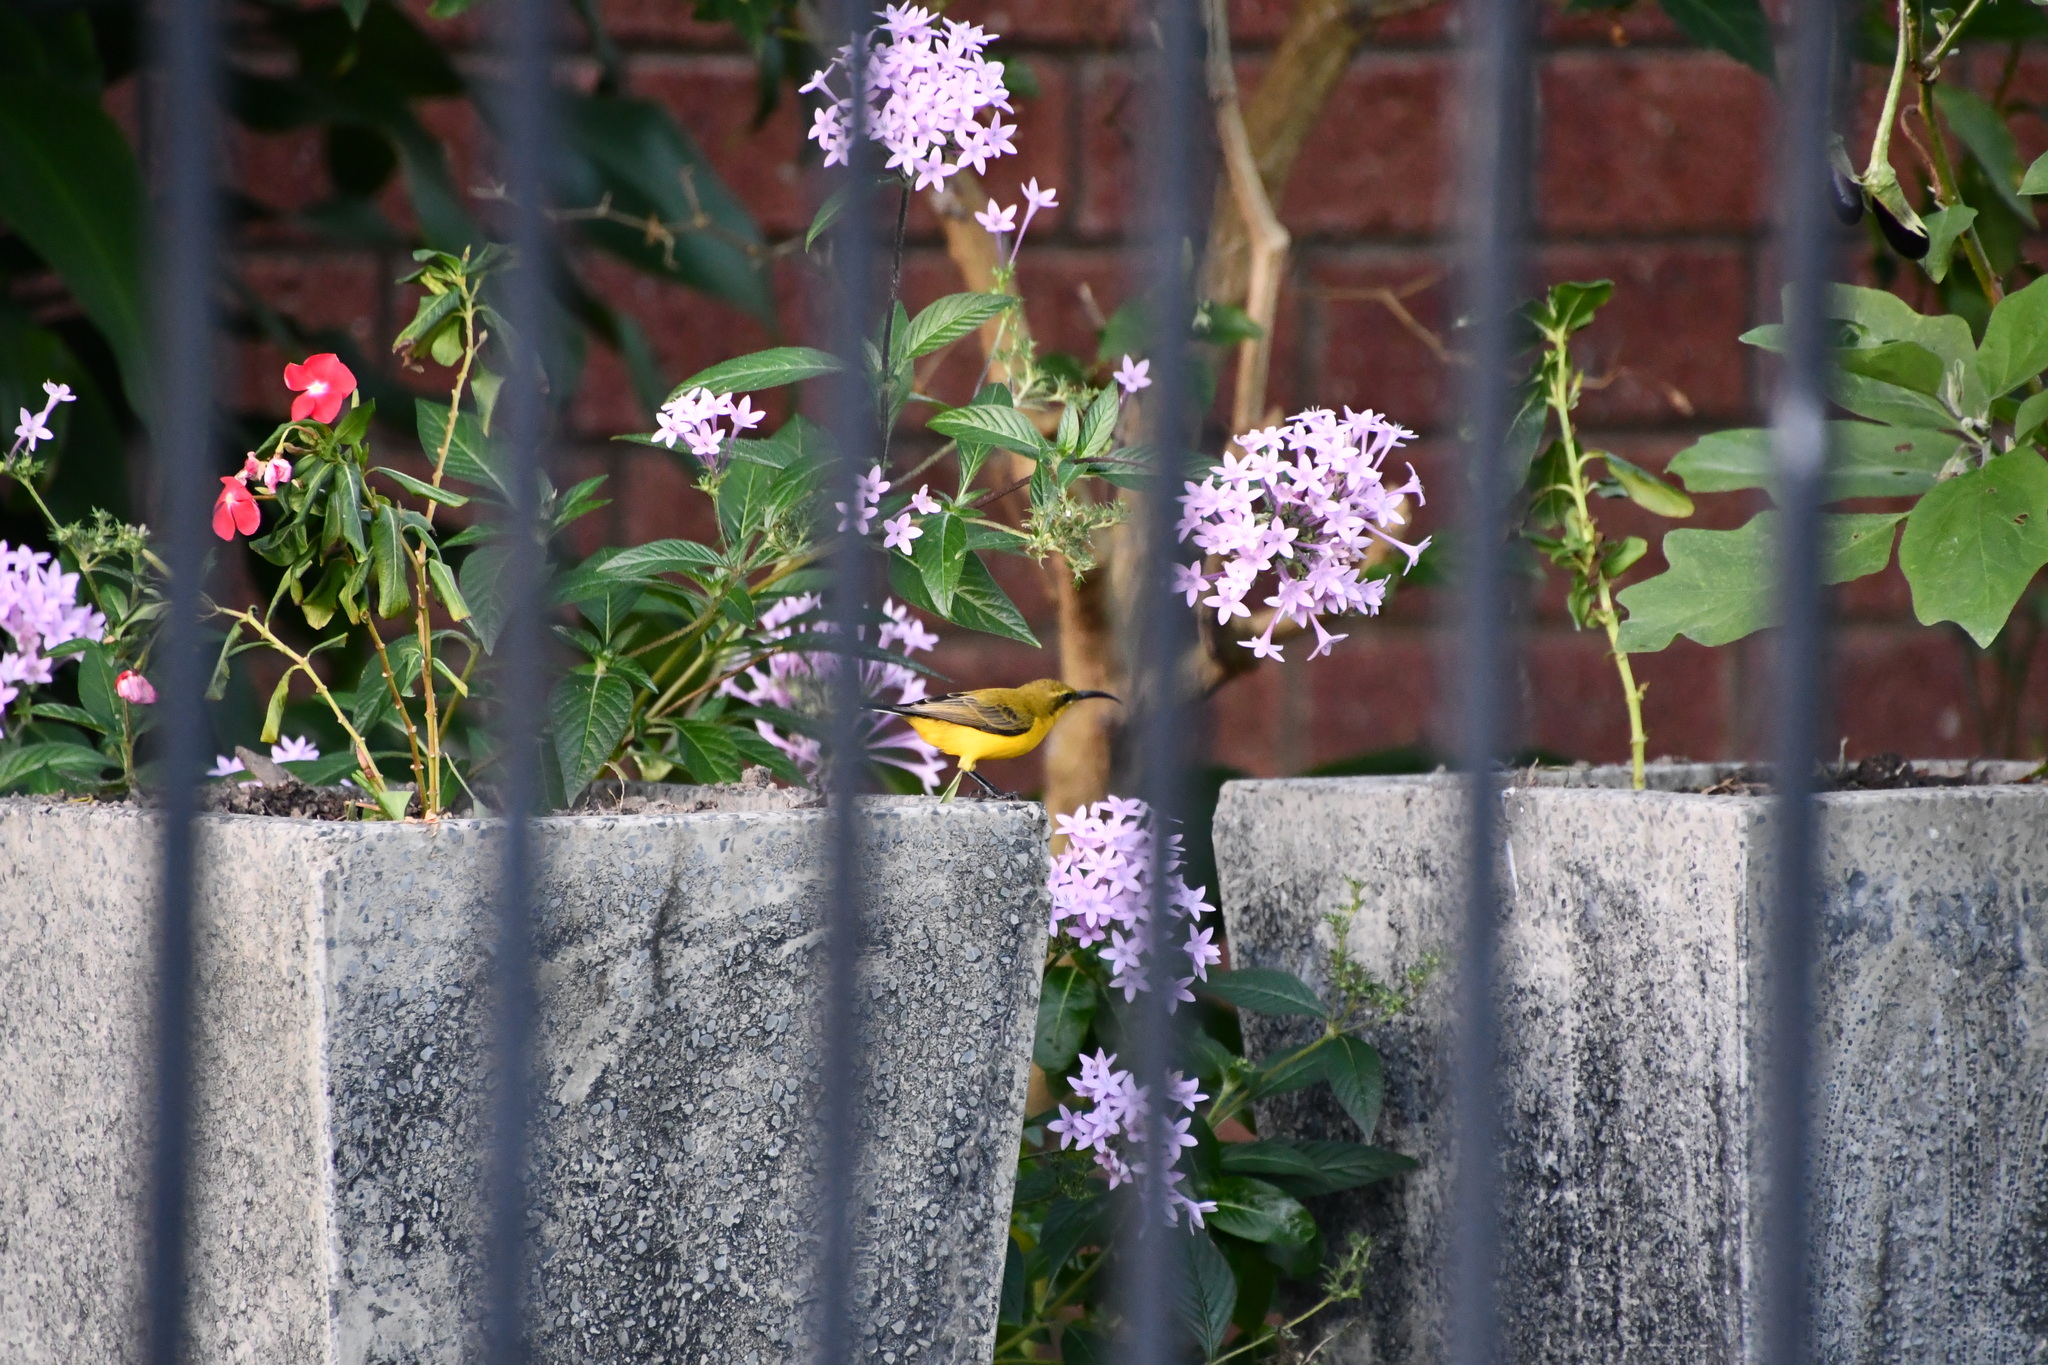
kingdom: Animalia
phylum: Chordata
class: Aves
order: Passeriformes
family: Nectariniidae
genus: Cinnyris
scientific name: Cinnyris
